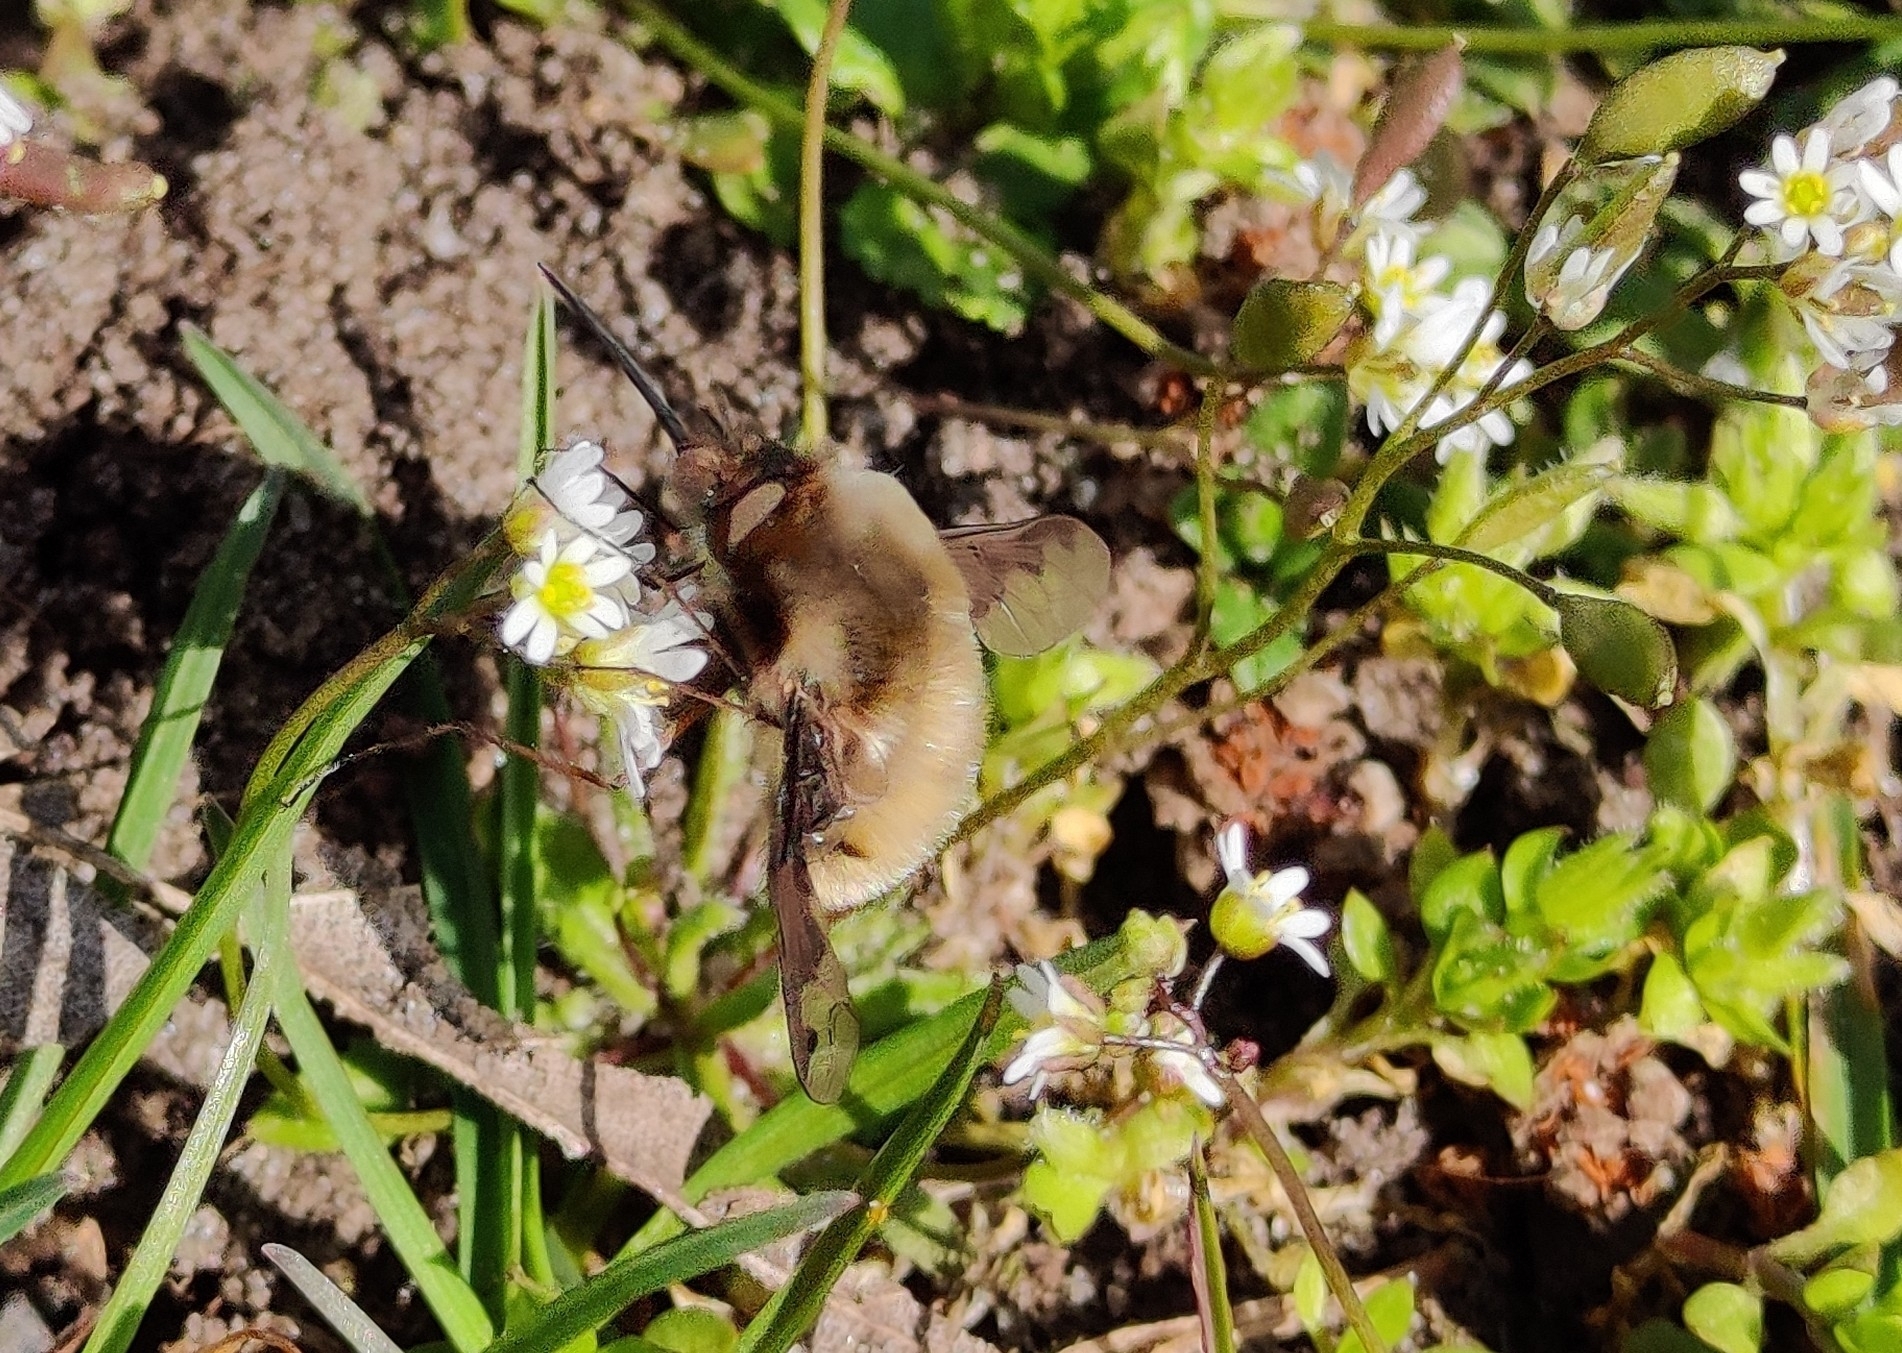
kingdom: Animalia
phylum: Arthropoda
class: Insecta
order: Diptera
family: Bombyliidae
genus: Bombylius
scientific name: Bombylius major
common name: Bee fly
